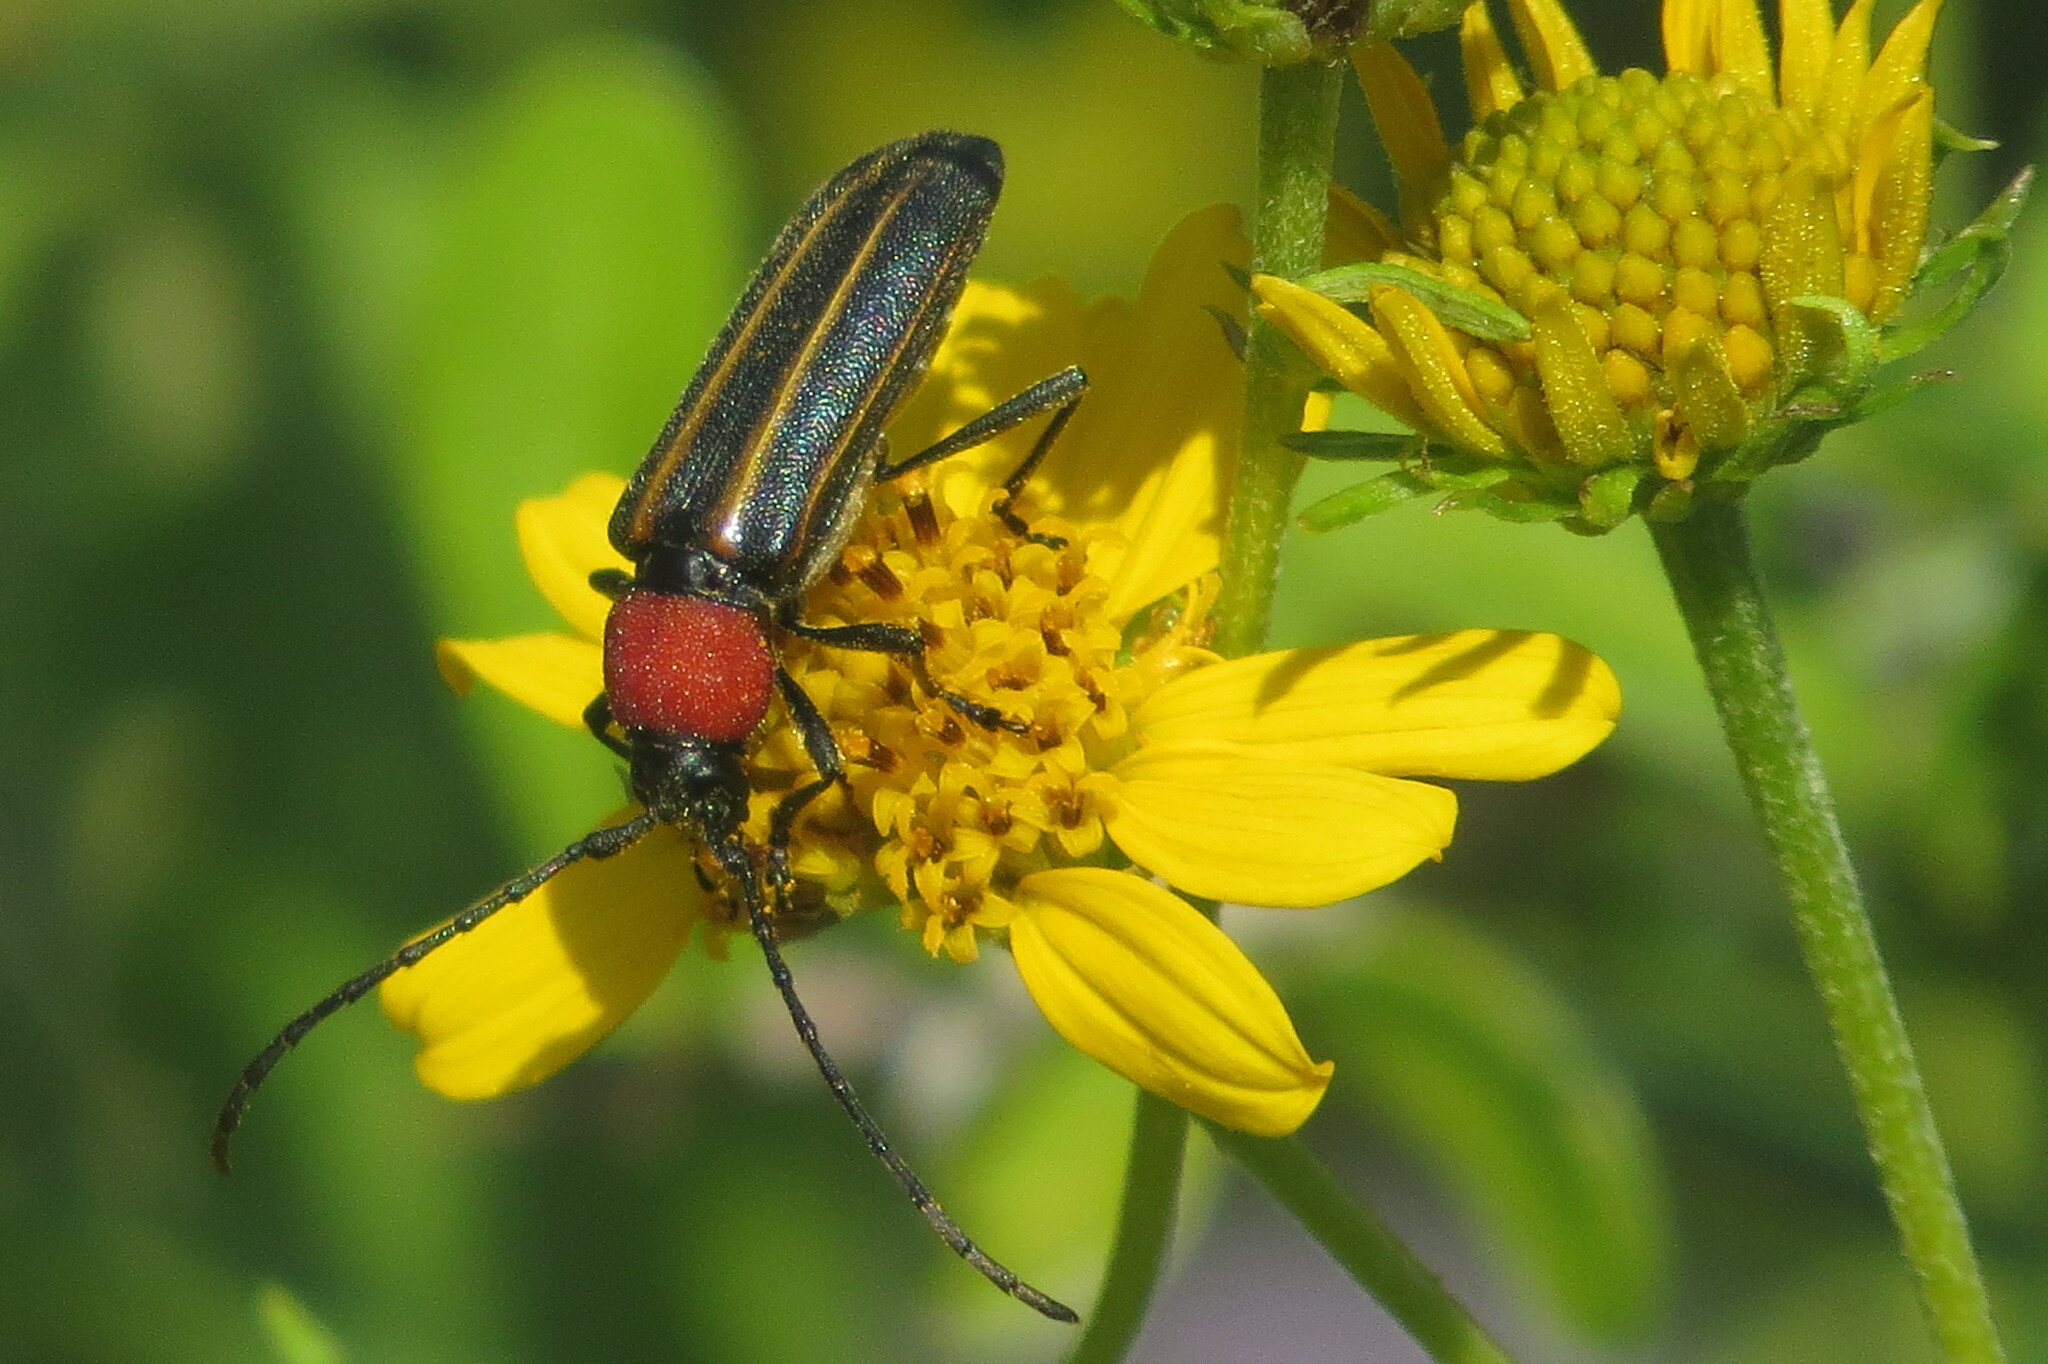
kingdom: Animalia
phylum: Arthropoda
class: Insecta
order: Coleoptera
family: Cerambycidae
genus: Mannophorus
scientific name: Mannophorus laetus
